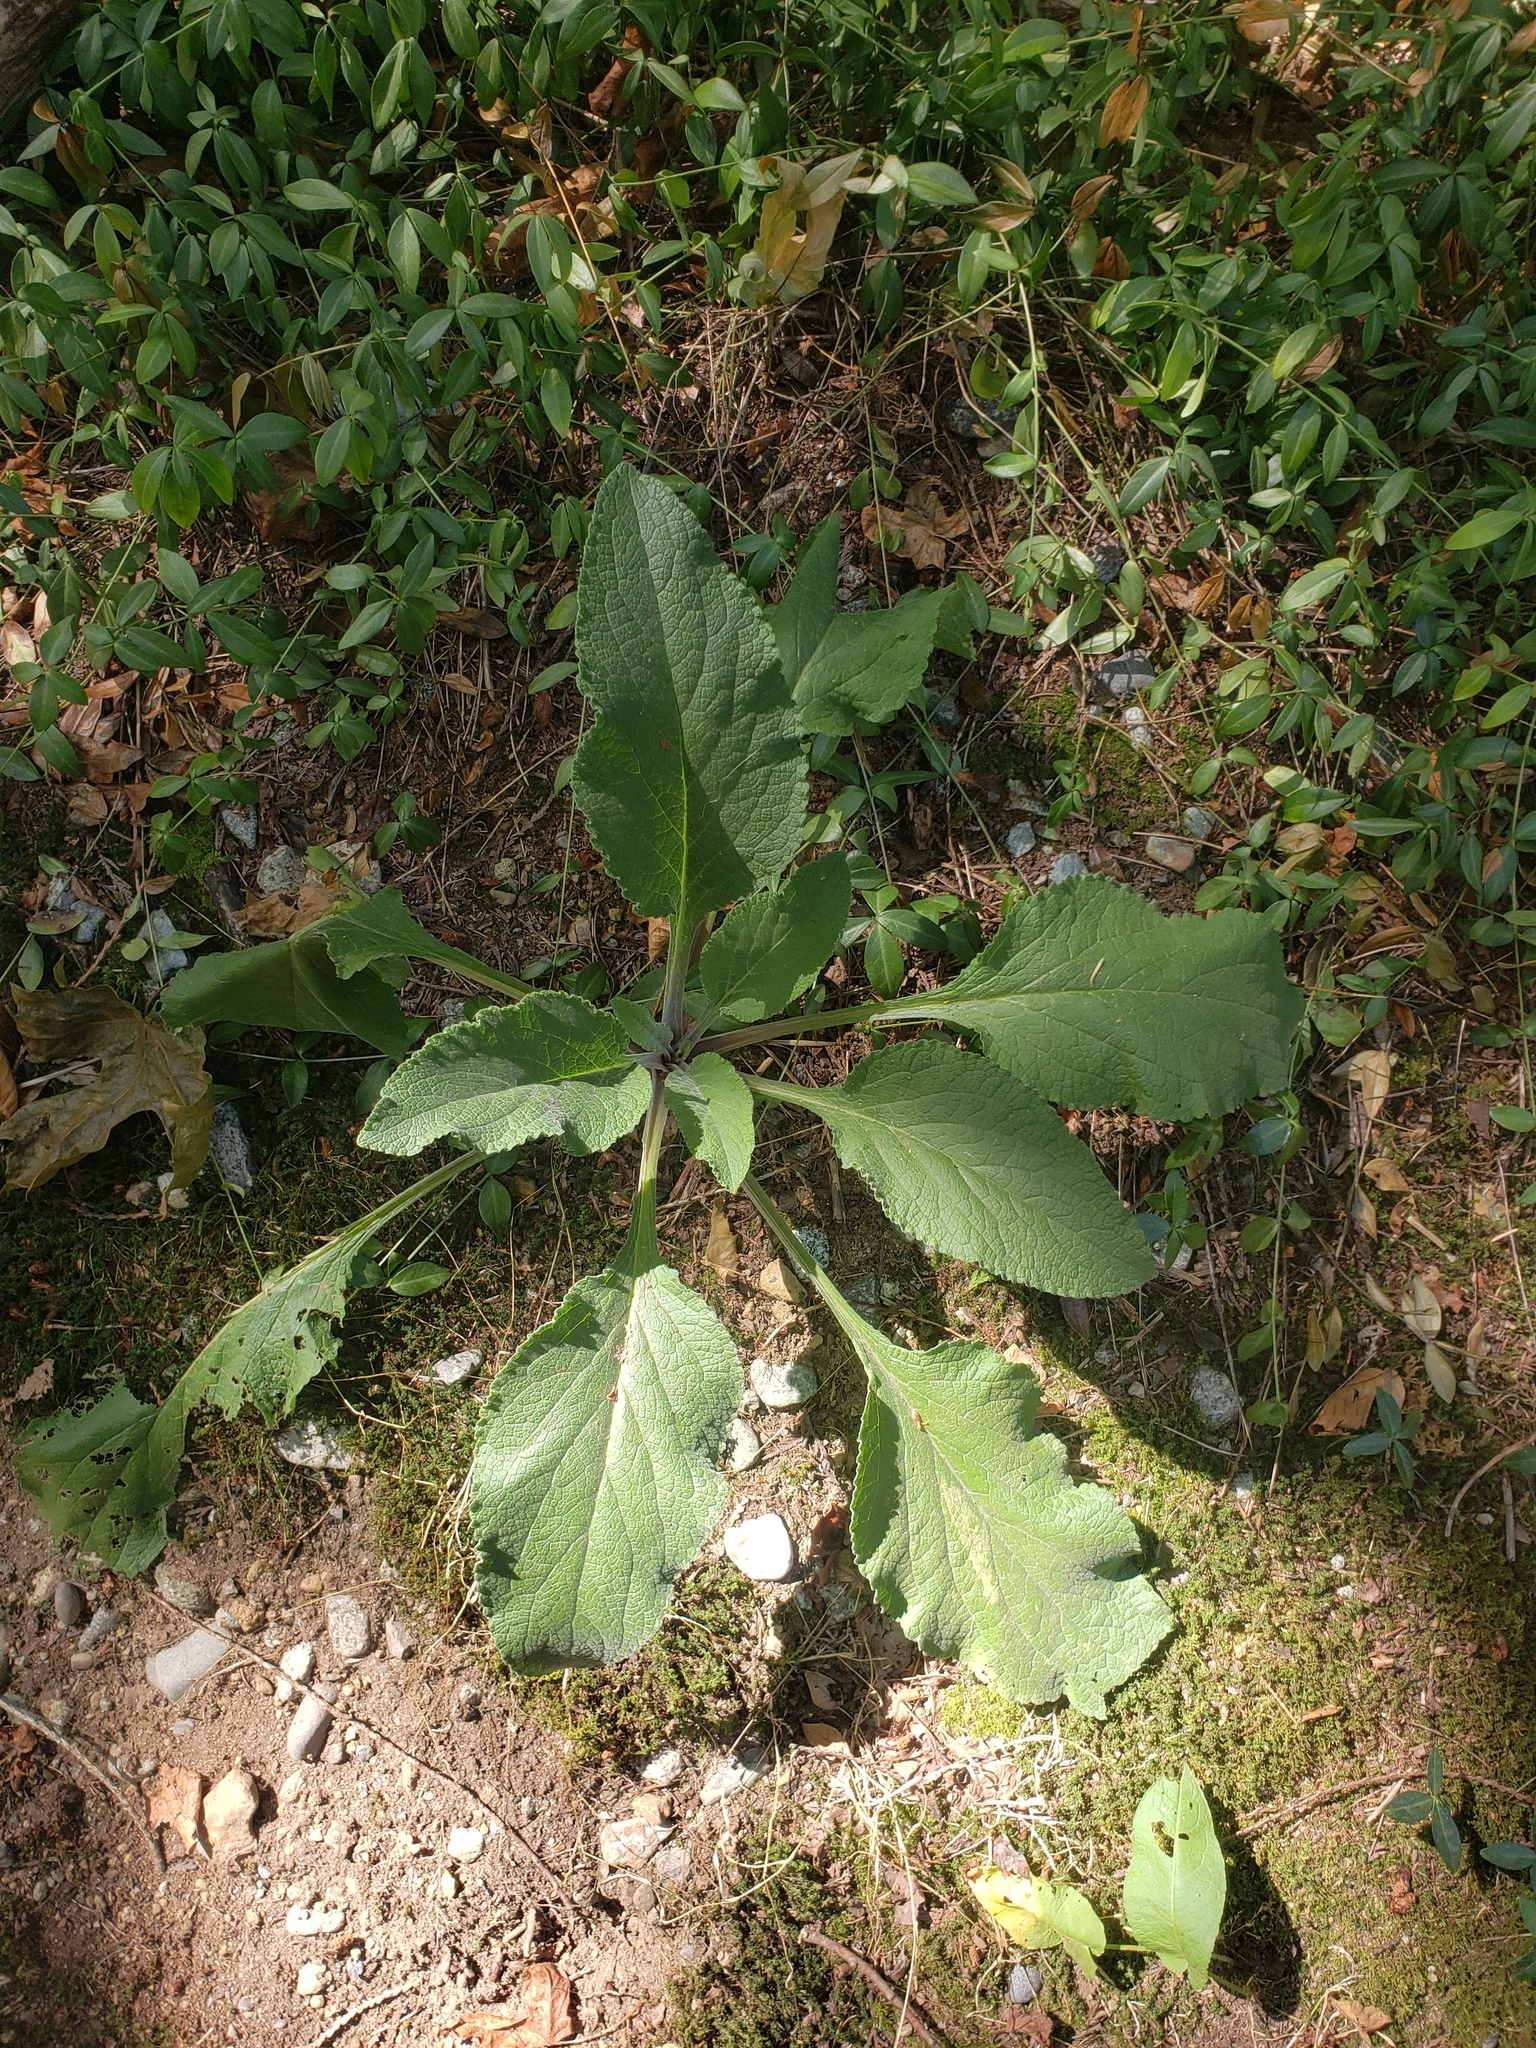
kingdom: Plantae
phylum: Tracheophyta
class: Magnoliopsida
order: Lamiales
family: Plantaginaceae
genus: Digitalis
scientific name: Digitalis purpurea
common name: Foxglove
